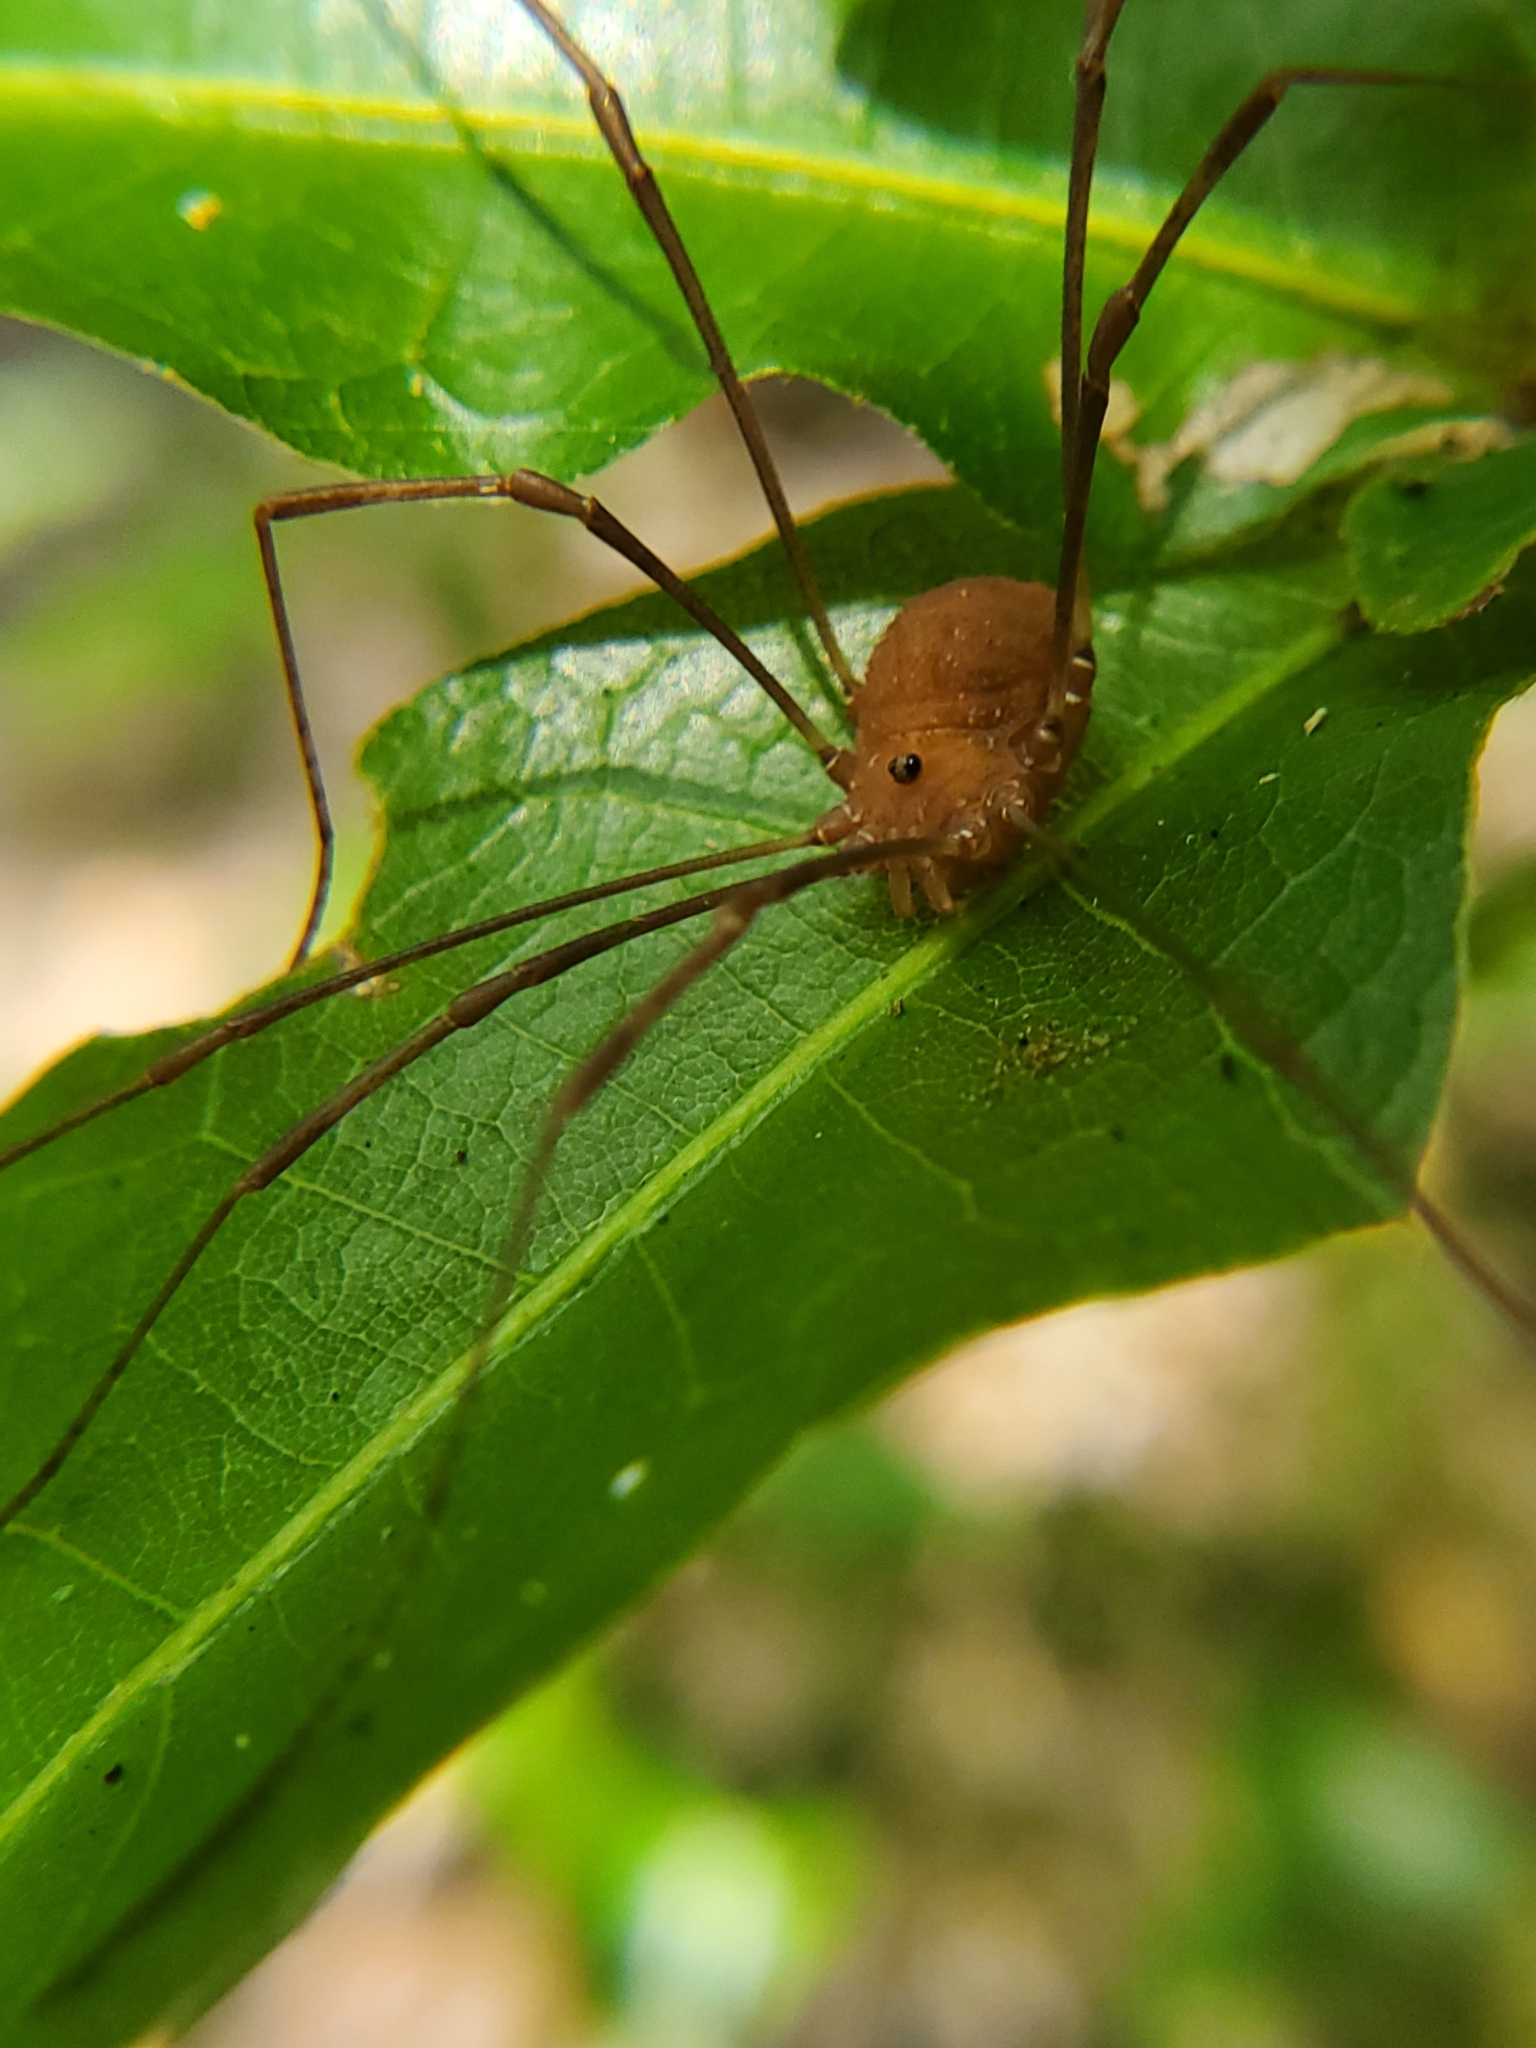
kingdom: Animalia
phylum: Arthropoda
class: Arachnida
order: Opiliones
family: Sclerosomatidae
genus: Hadrobunus
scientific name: Hadrobunus grandis
